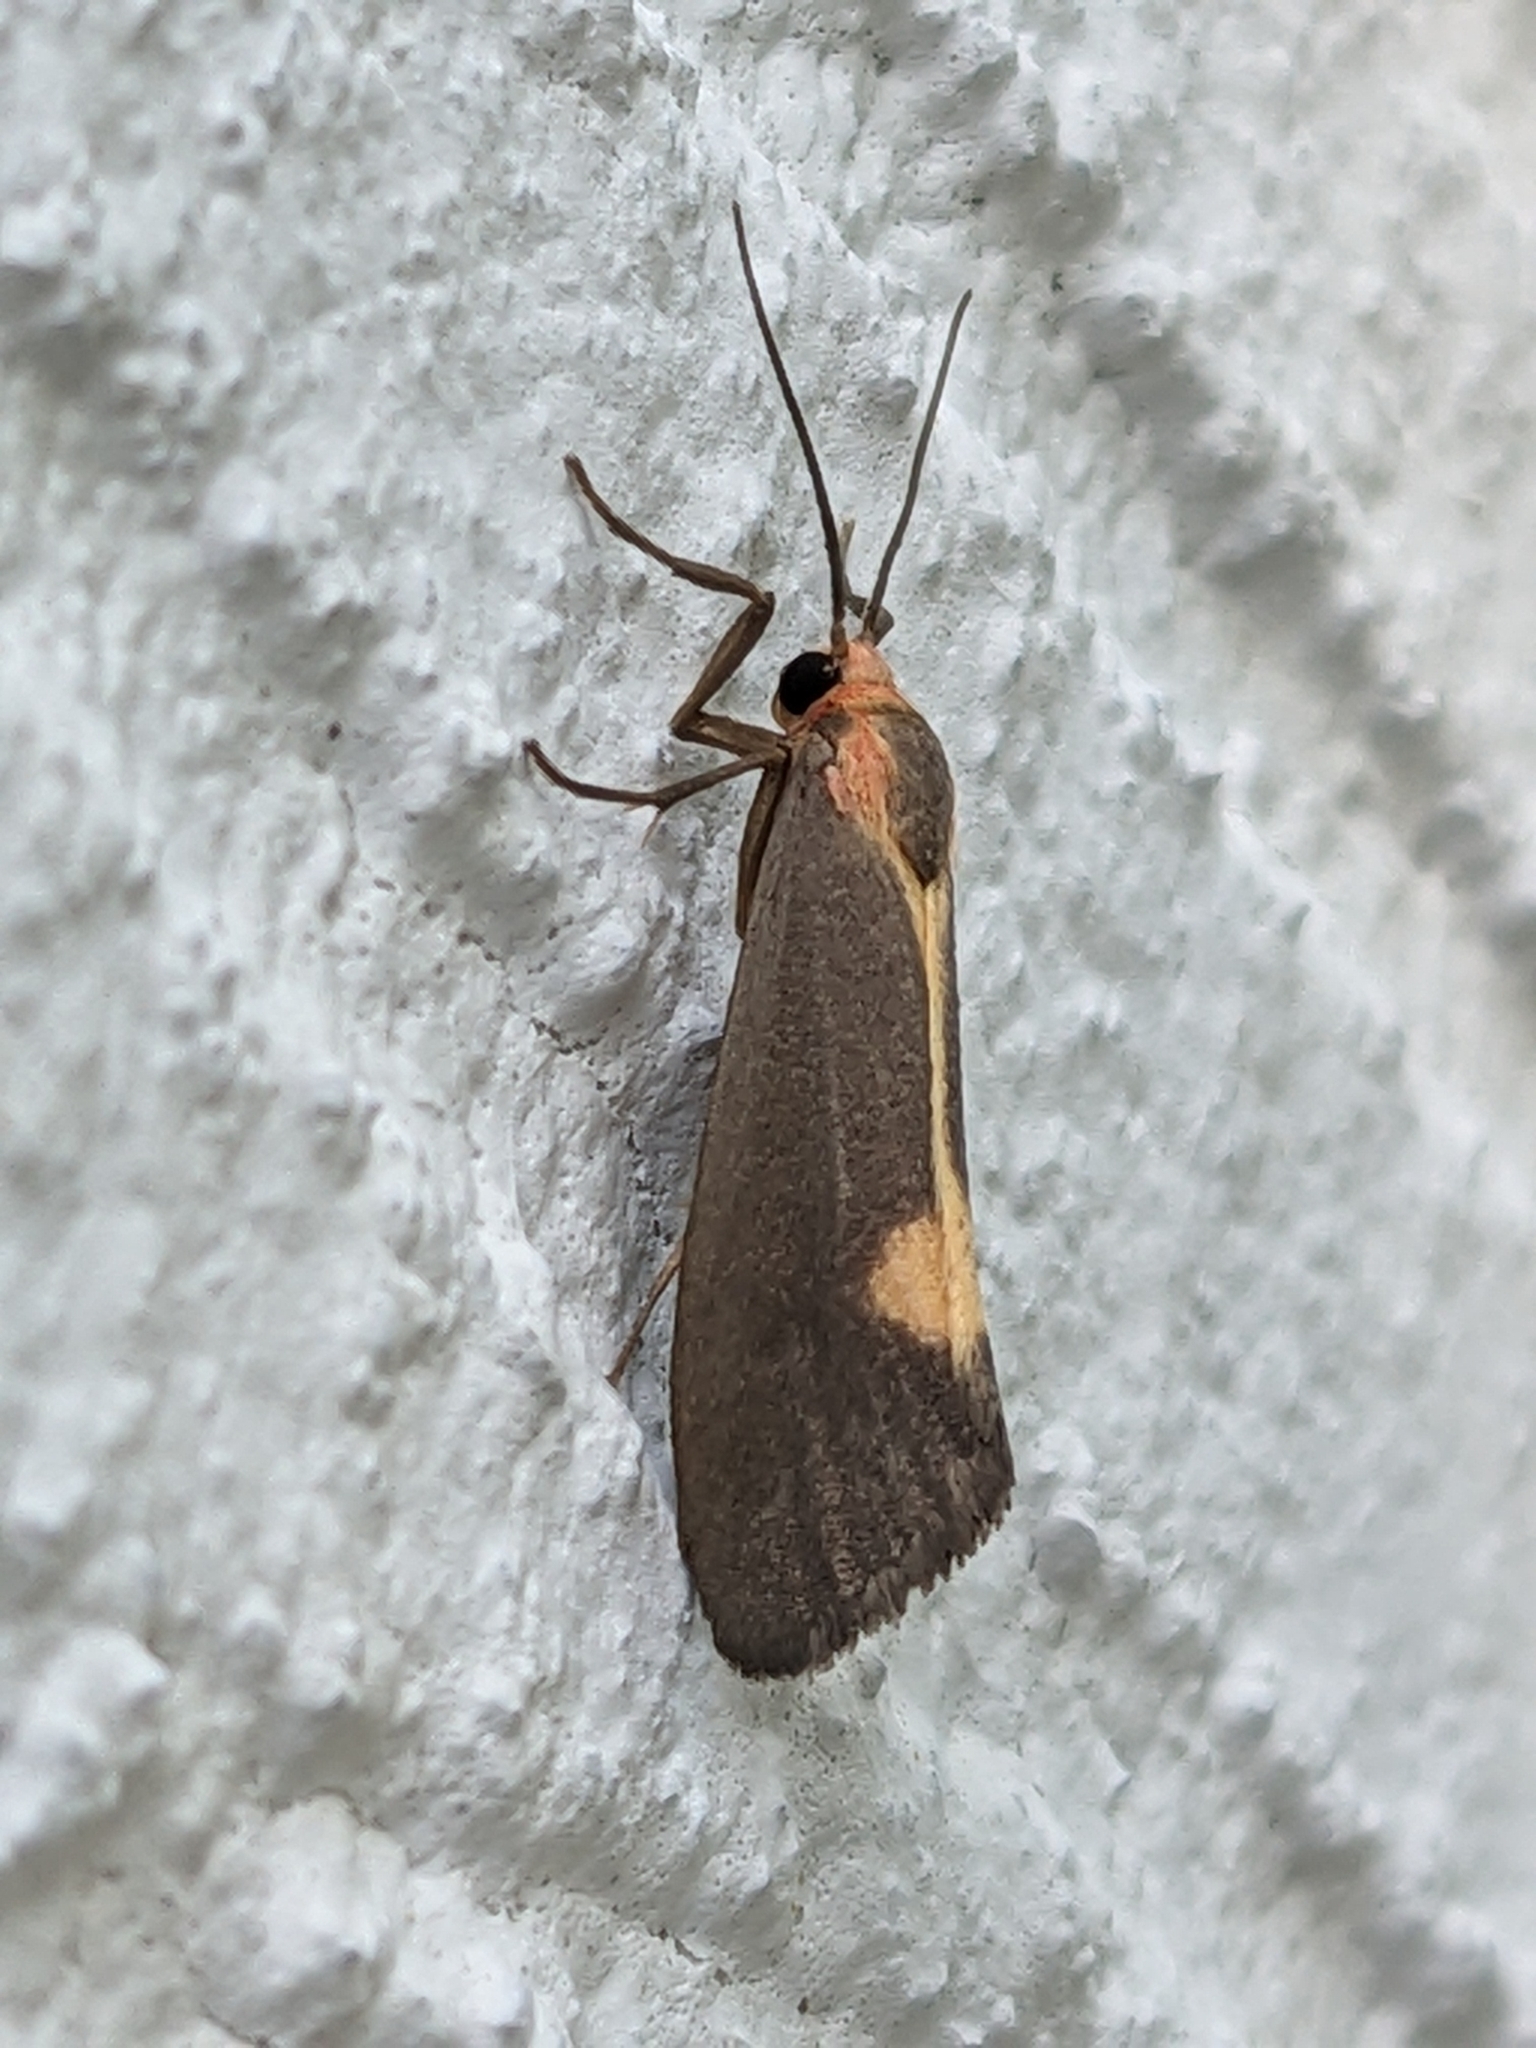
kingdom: Animalia
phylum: Arthropoda
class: Insecta
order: Lepidoptera
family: Erebidae
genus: Cisthene
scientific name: Cisthene plumbea
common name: Lead colored lichen moth
